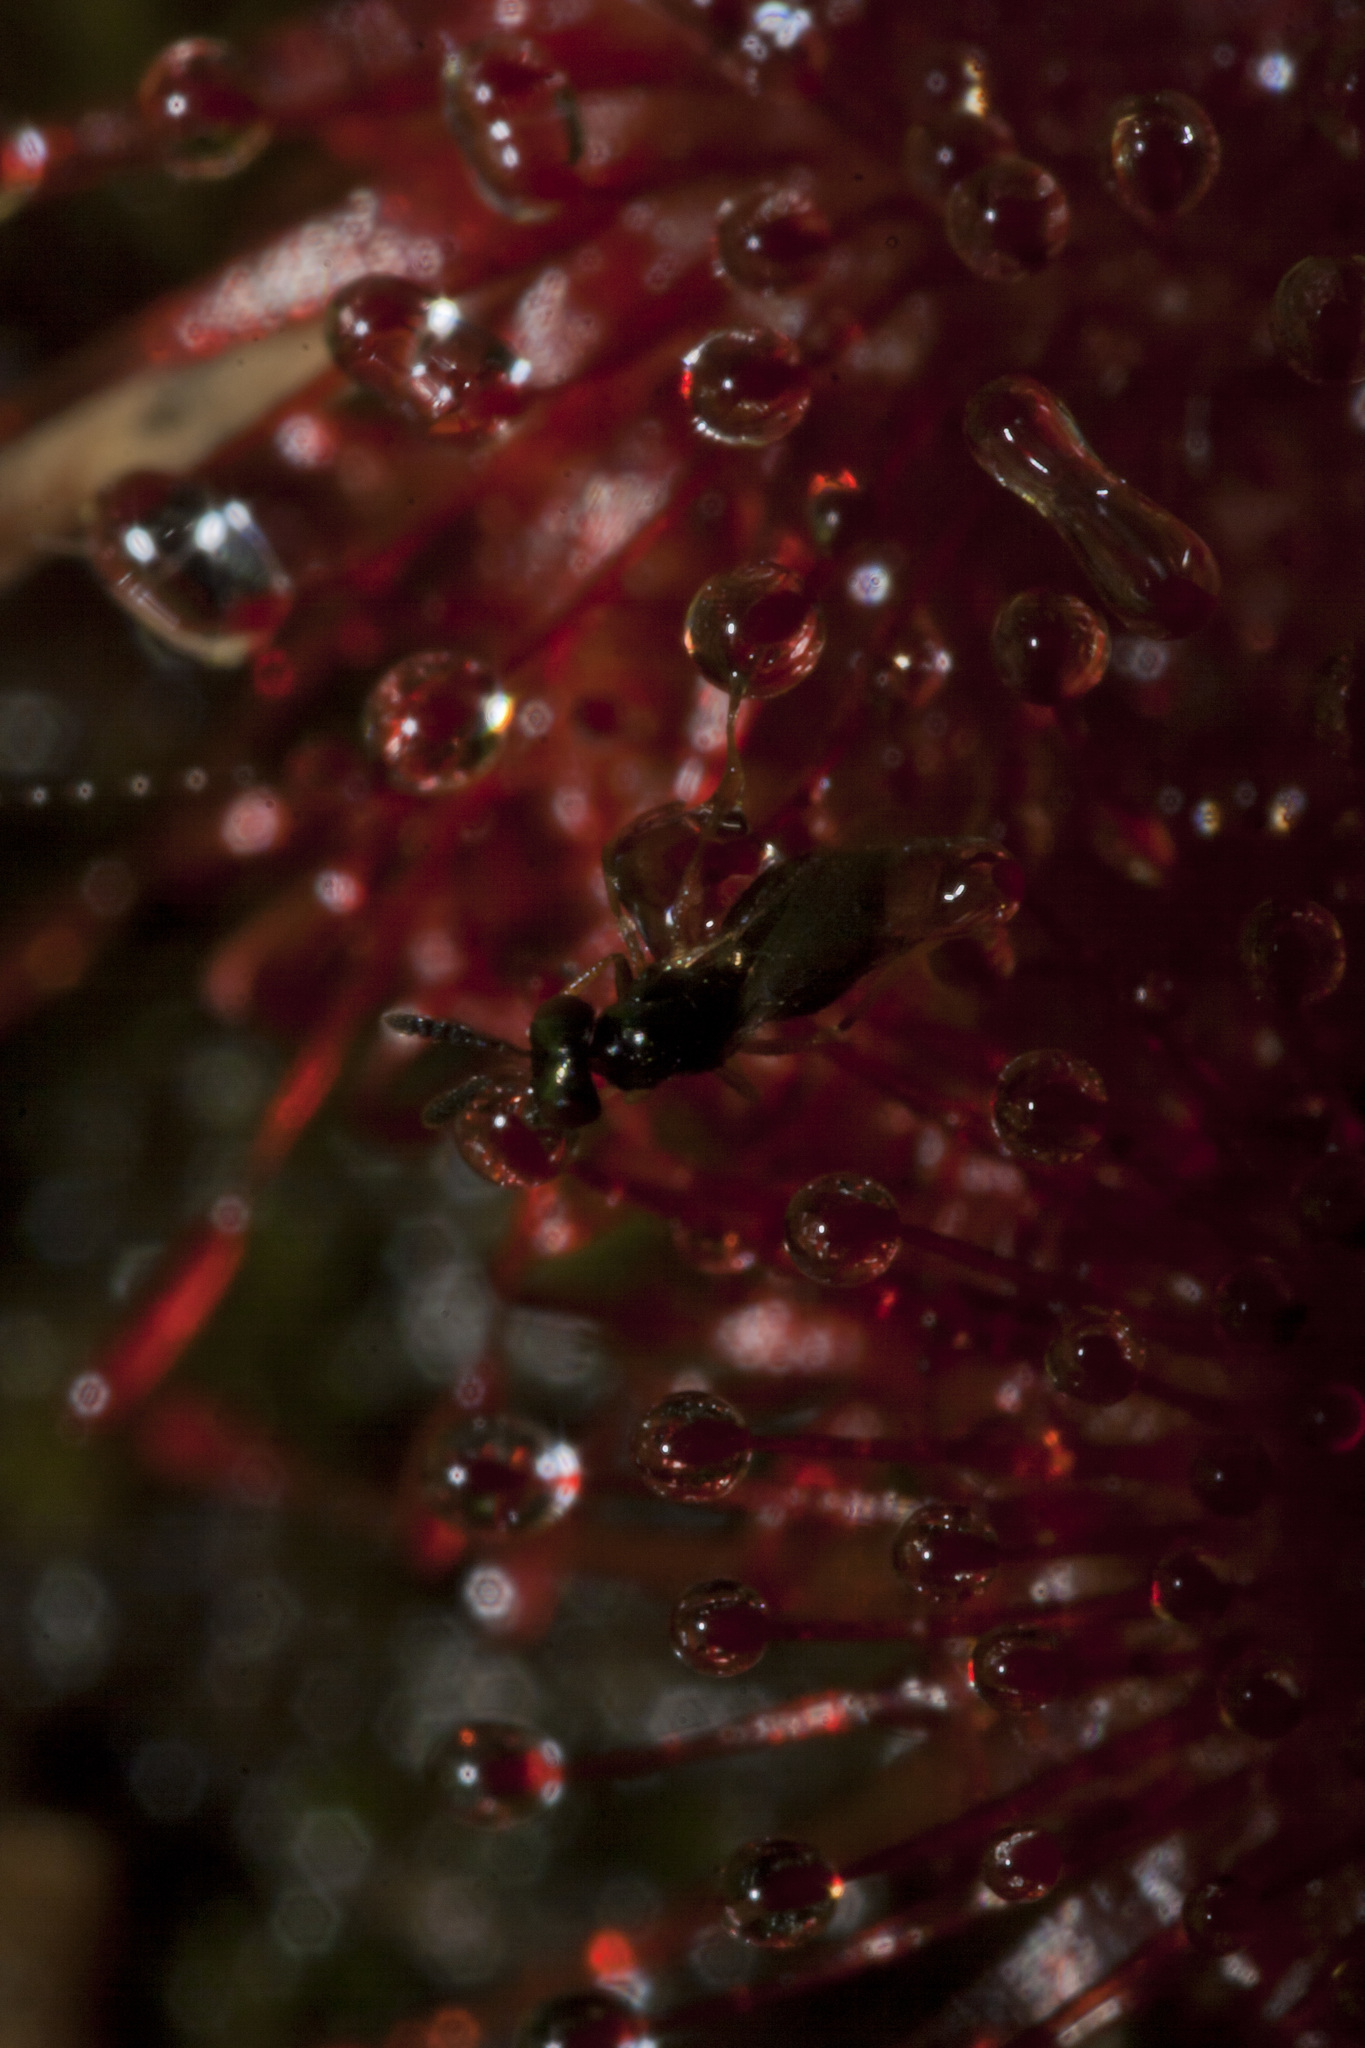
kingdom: Plantae
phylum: Tracheophyta
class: Magnoliopsida
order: Caryophyllales
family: Droseraceae
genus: Drosera
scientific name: Drosera spatulata
